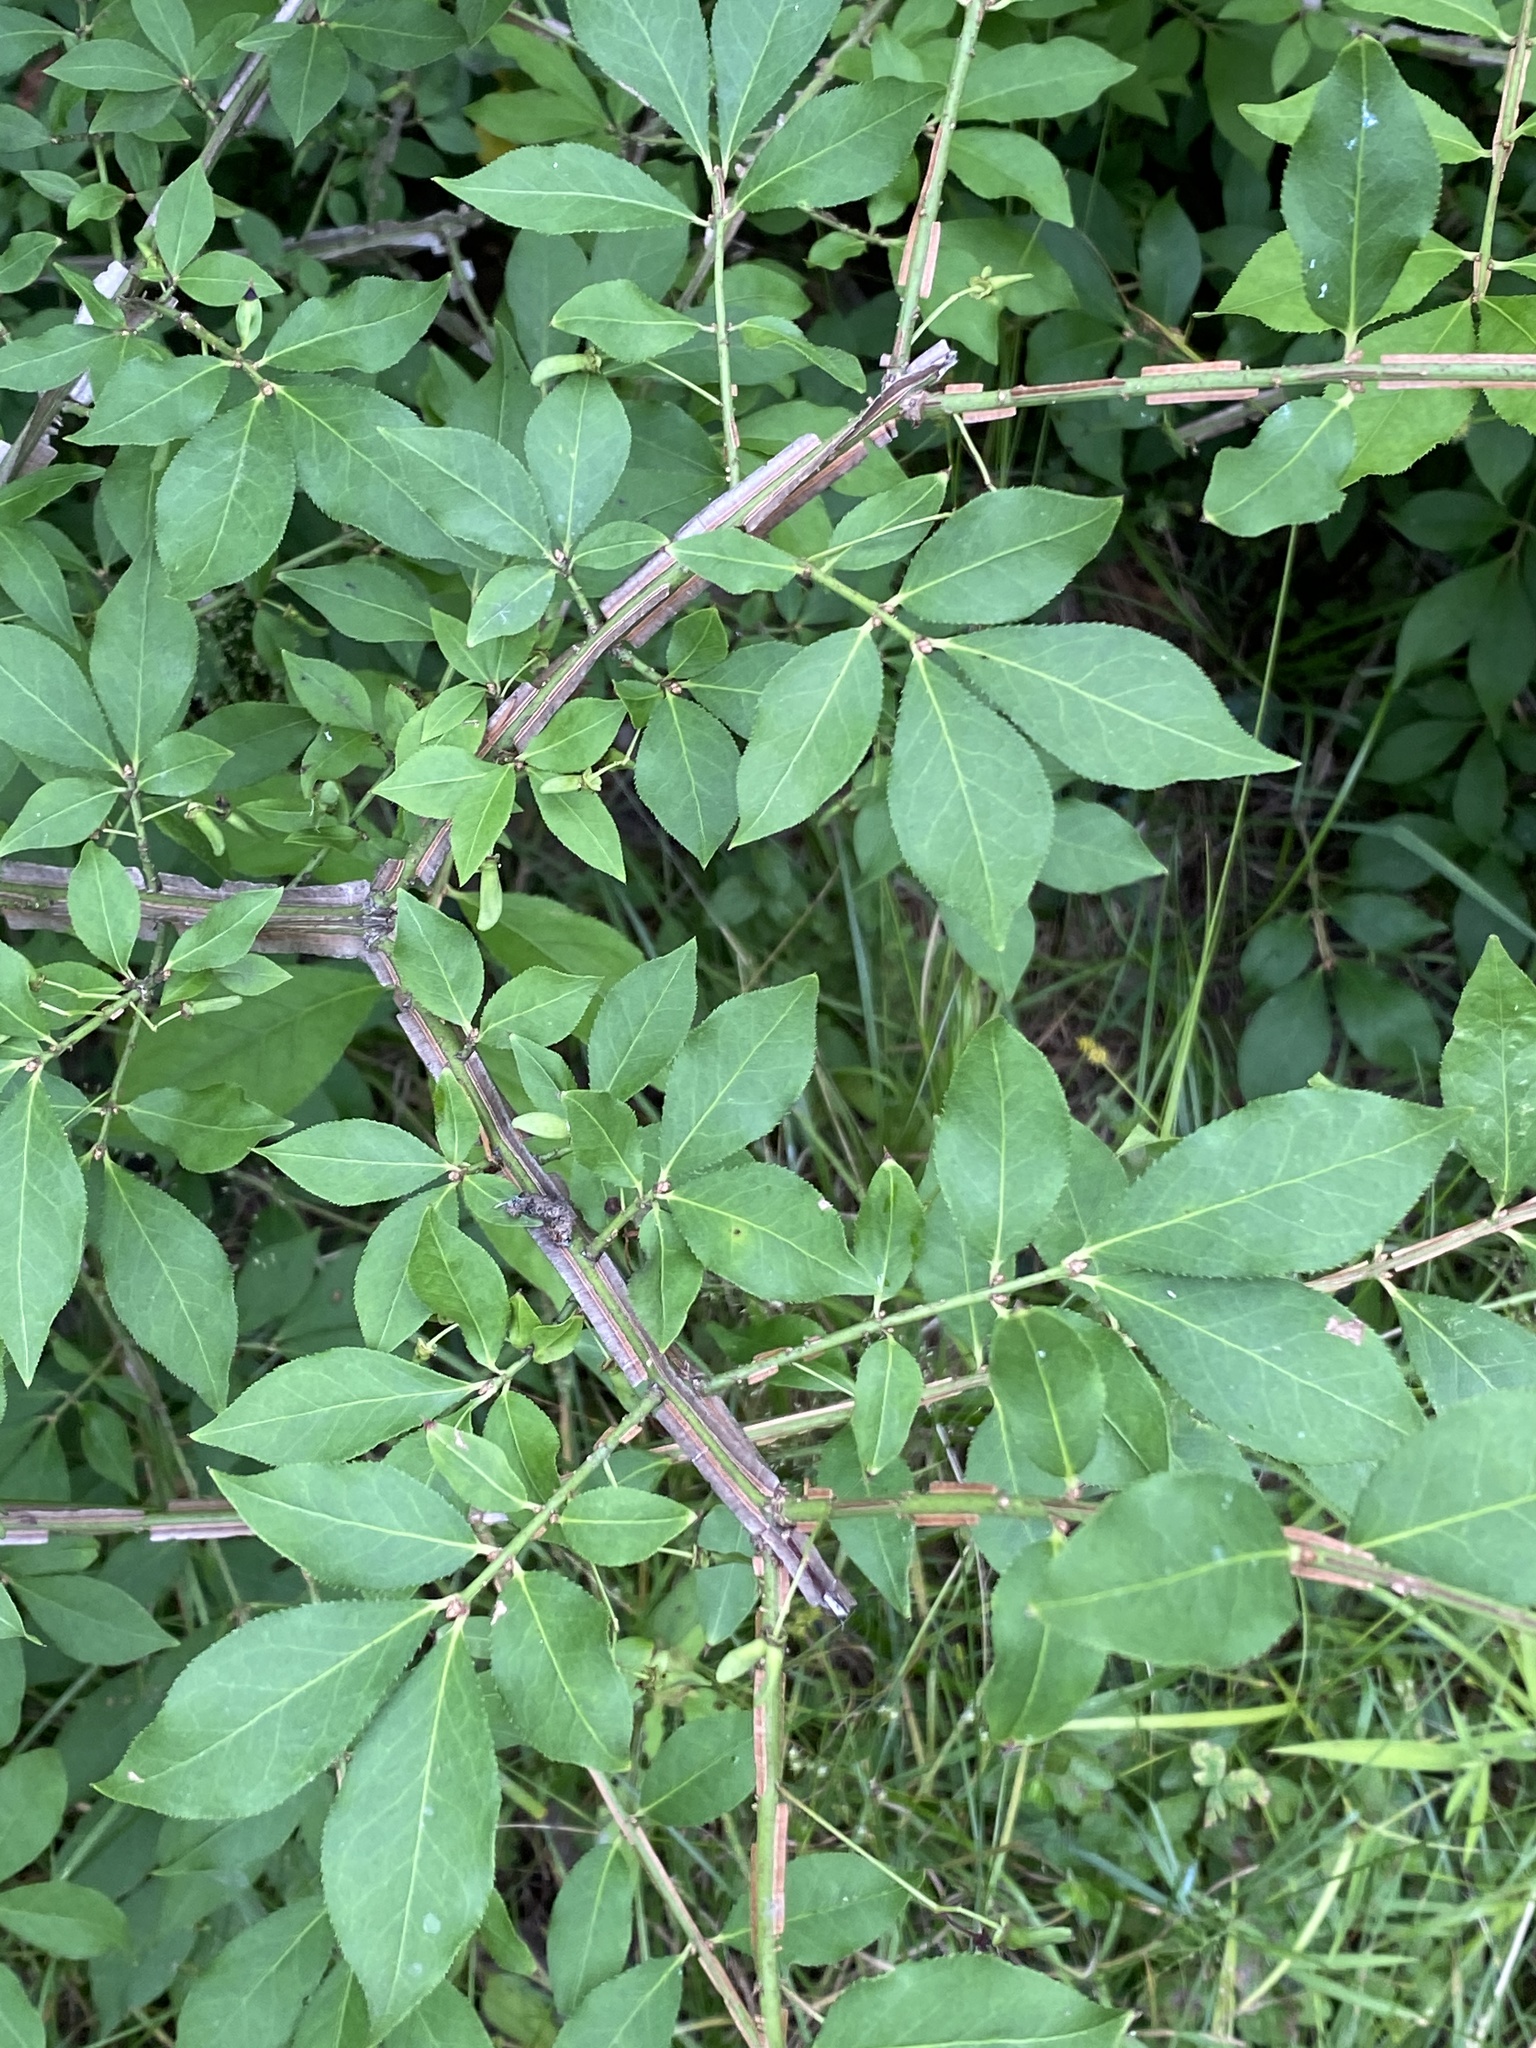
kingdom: Plantae
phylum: Tracheophyta
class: Magnoliopsida
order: Celastrales
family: Celastraceae
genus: Euonymus
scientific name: Euonymus alatus
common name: Winged euonymus
